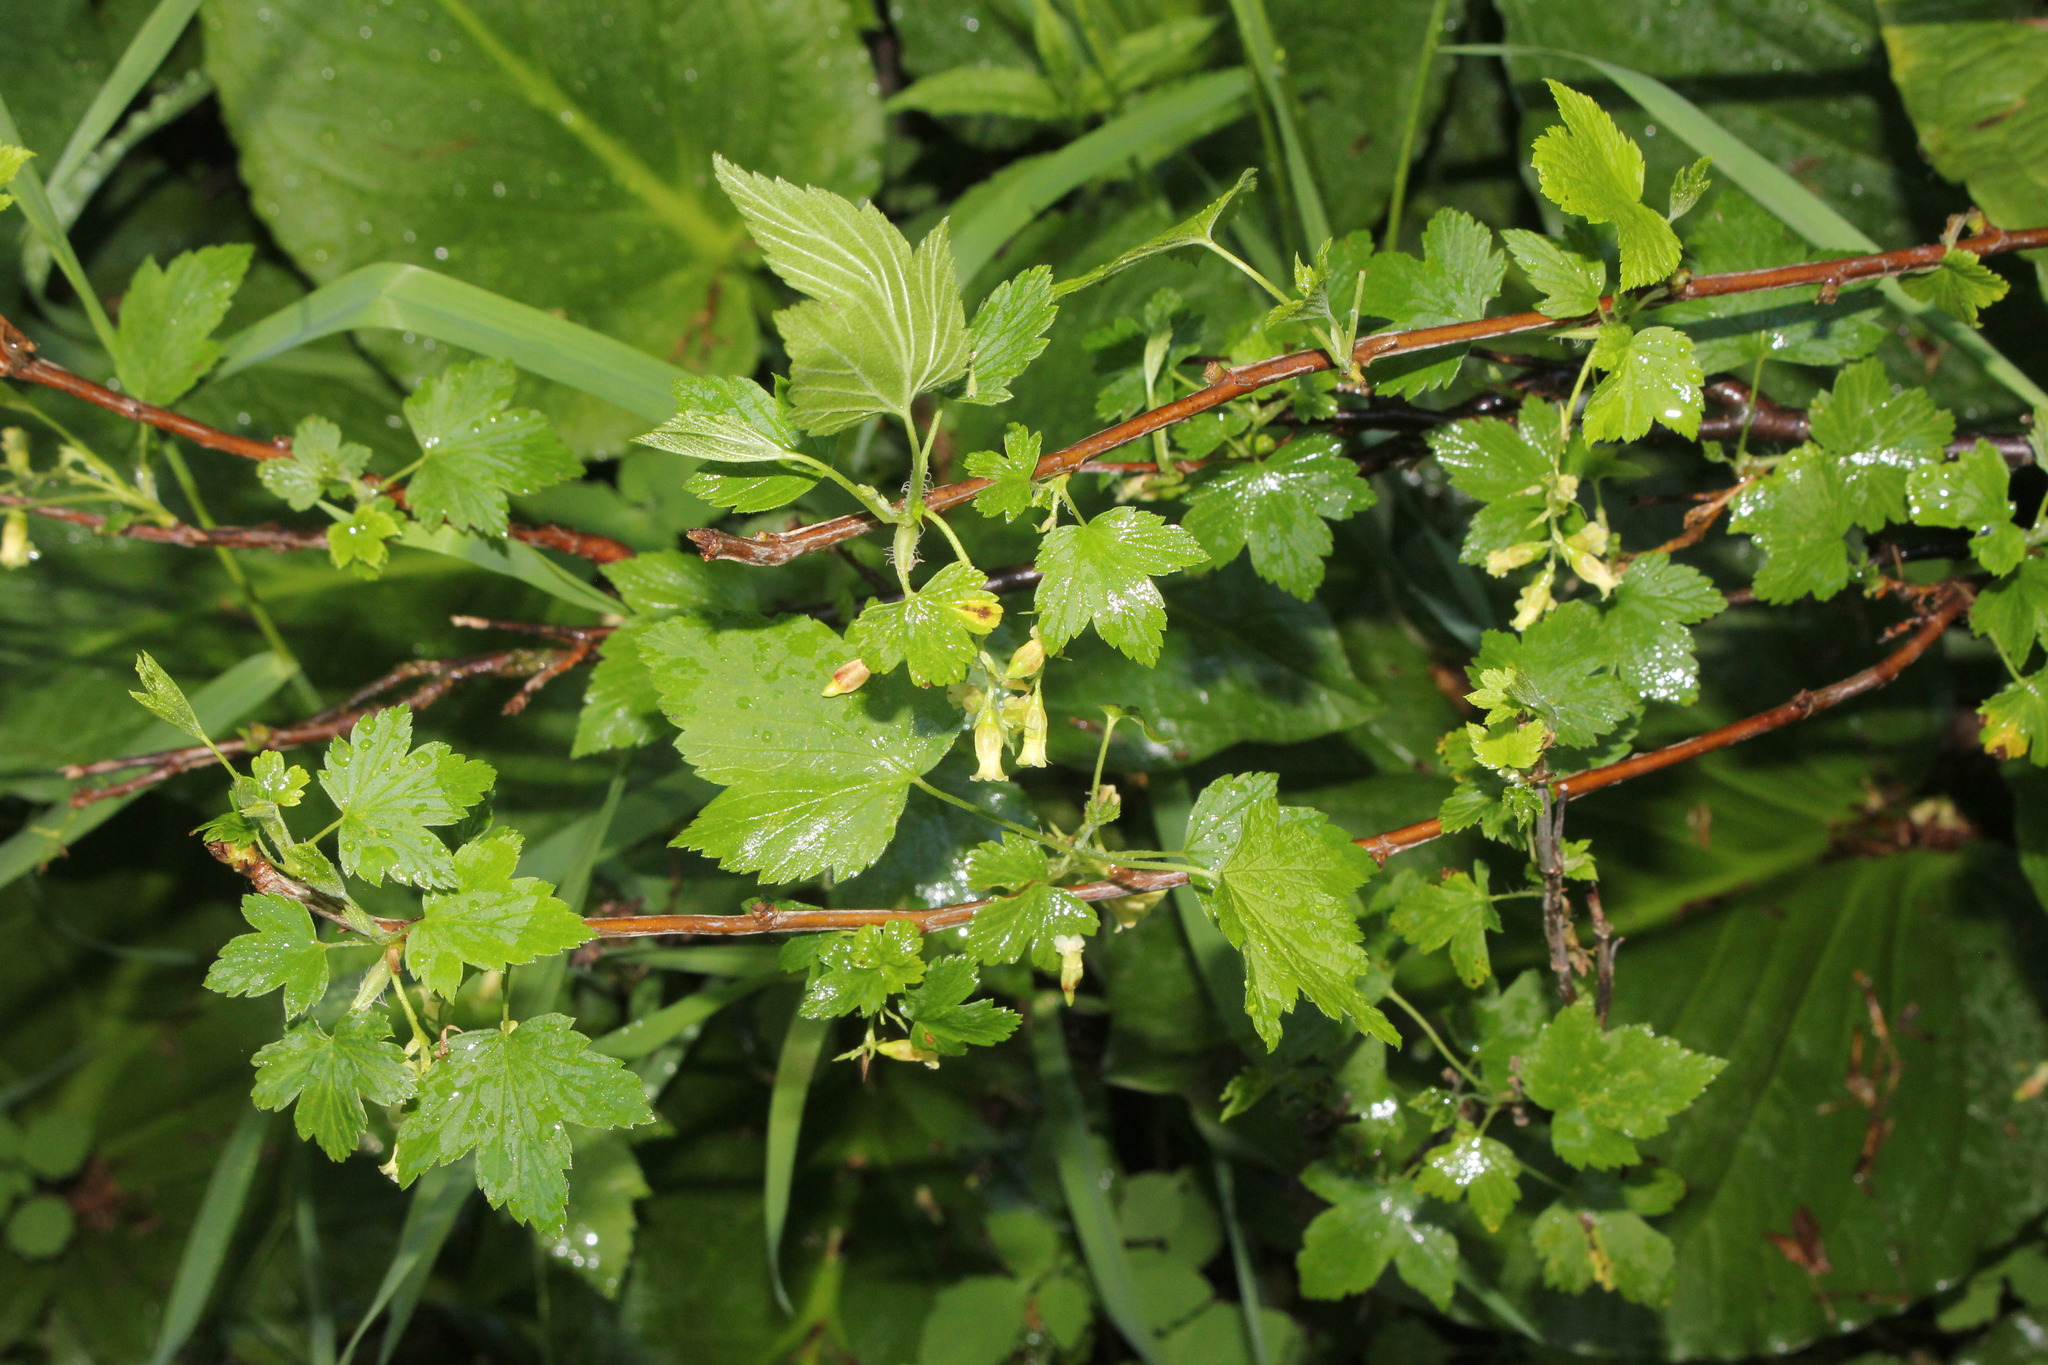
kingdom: Plantae
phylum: Tracheophyta
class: Magnoliopsida
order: Saxifragales
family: Grossulariaceae
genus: Ribes
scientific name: Ribes americanum
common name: American black currant
